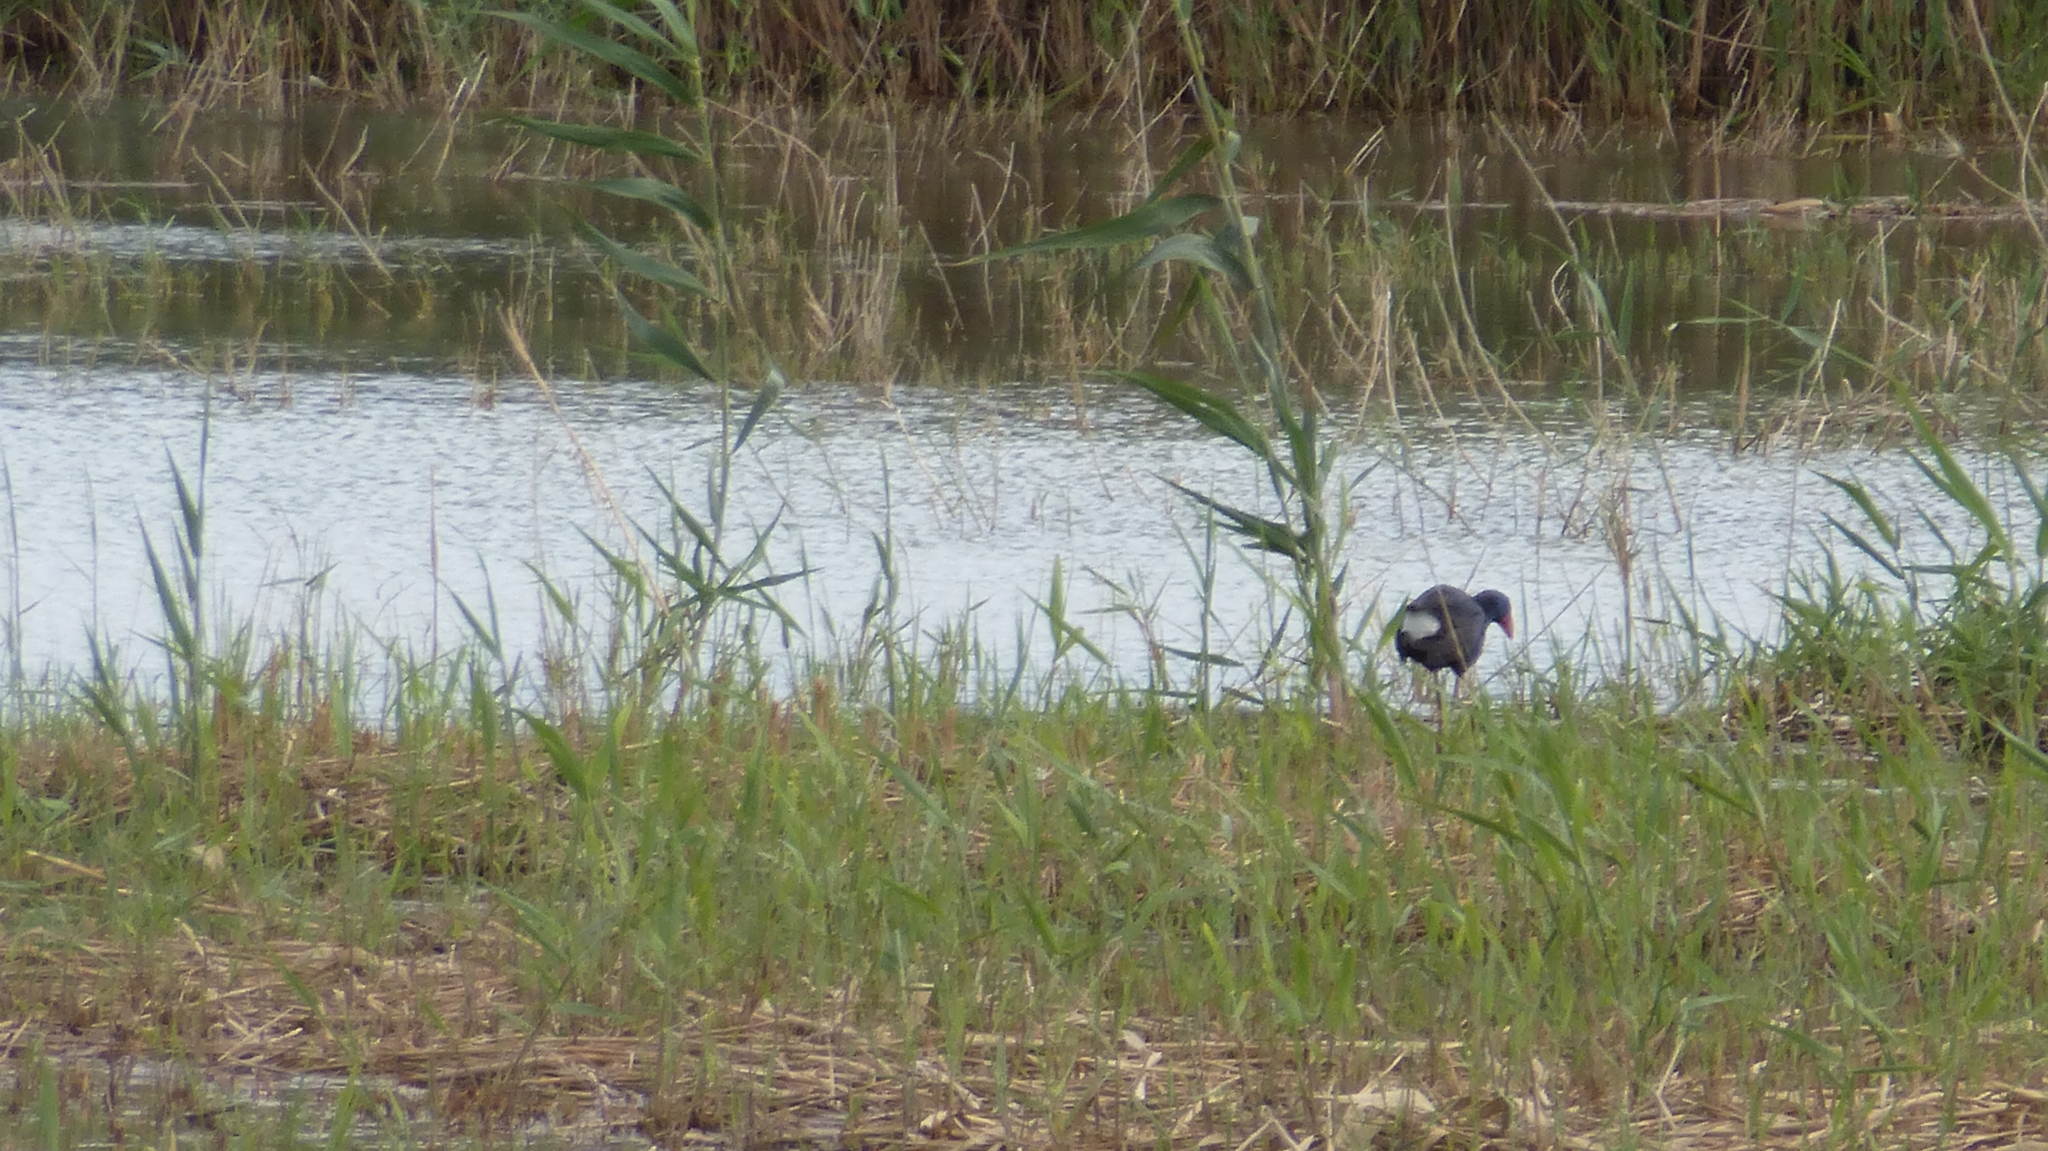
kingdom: Animalia
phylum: Chordata
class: Aves
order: Gruiformes
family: Rallidae
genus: Porphyrio
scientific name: Porphyrio porphyrio
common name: Purple swamphen
